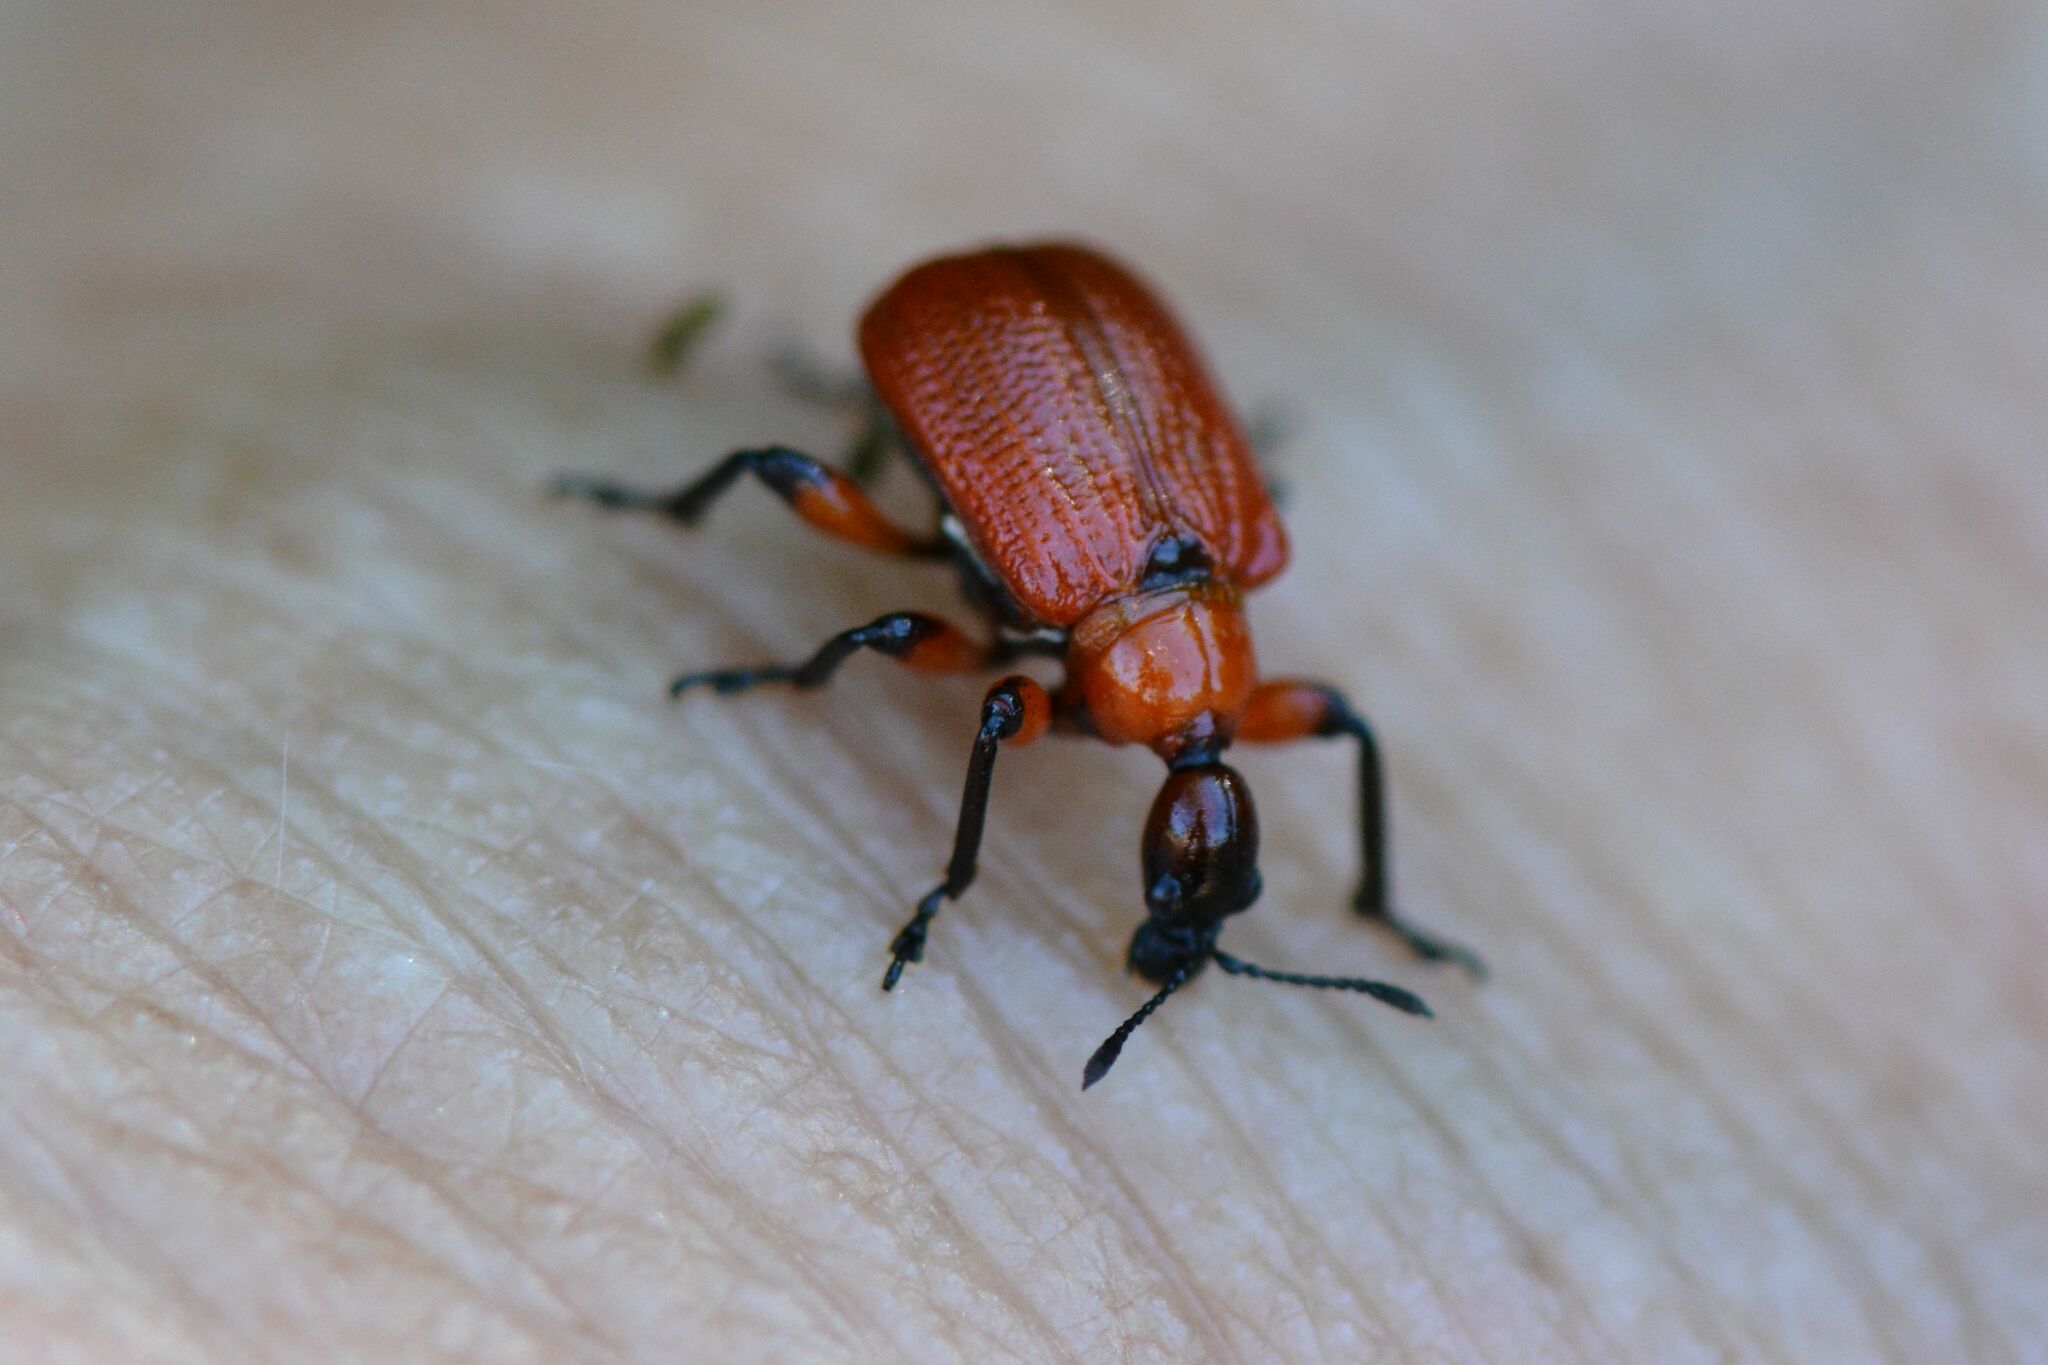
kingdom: Animalia
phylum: Arthropoda
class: Insecta
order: Coleoptera
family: Attelabidae
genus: Apoderus
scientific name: Apoderus coryli
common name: Hazel leaf roller
